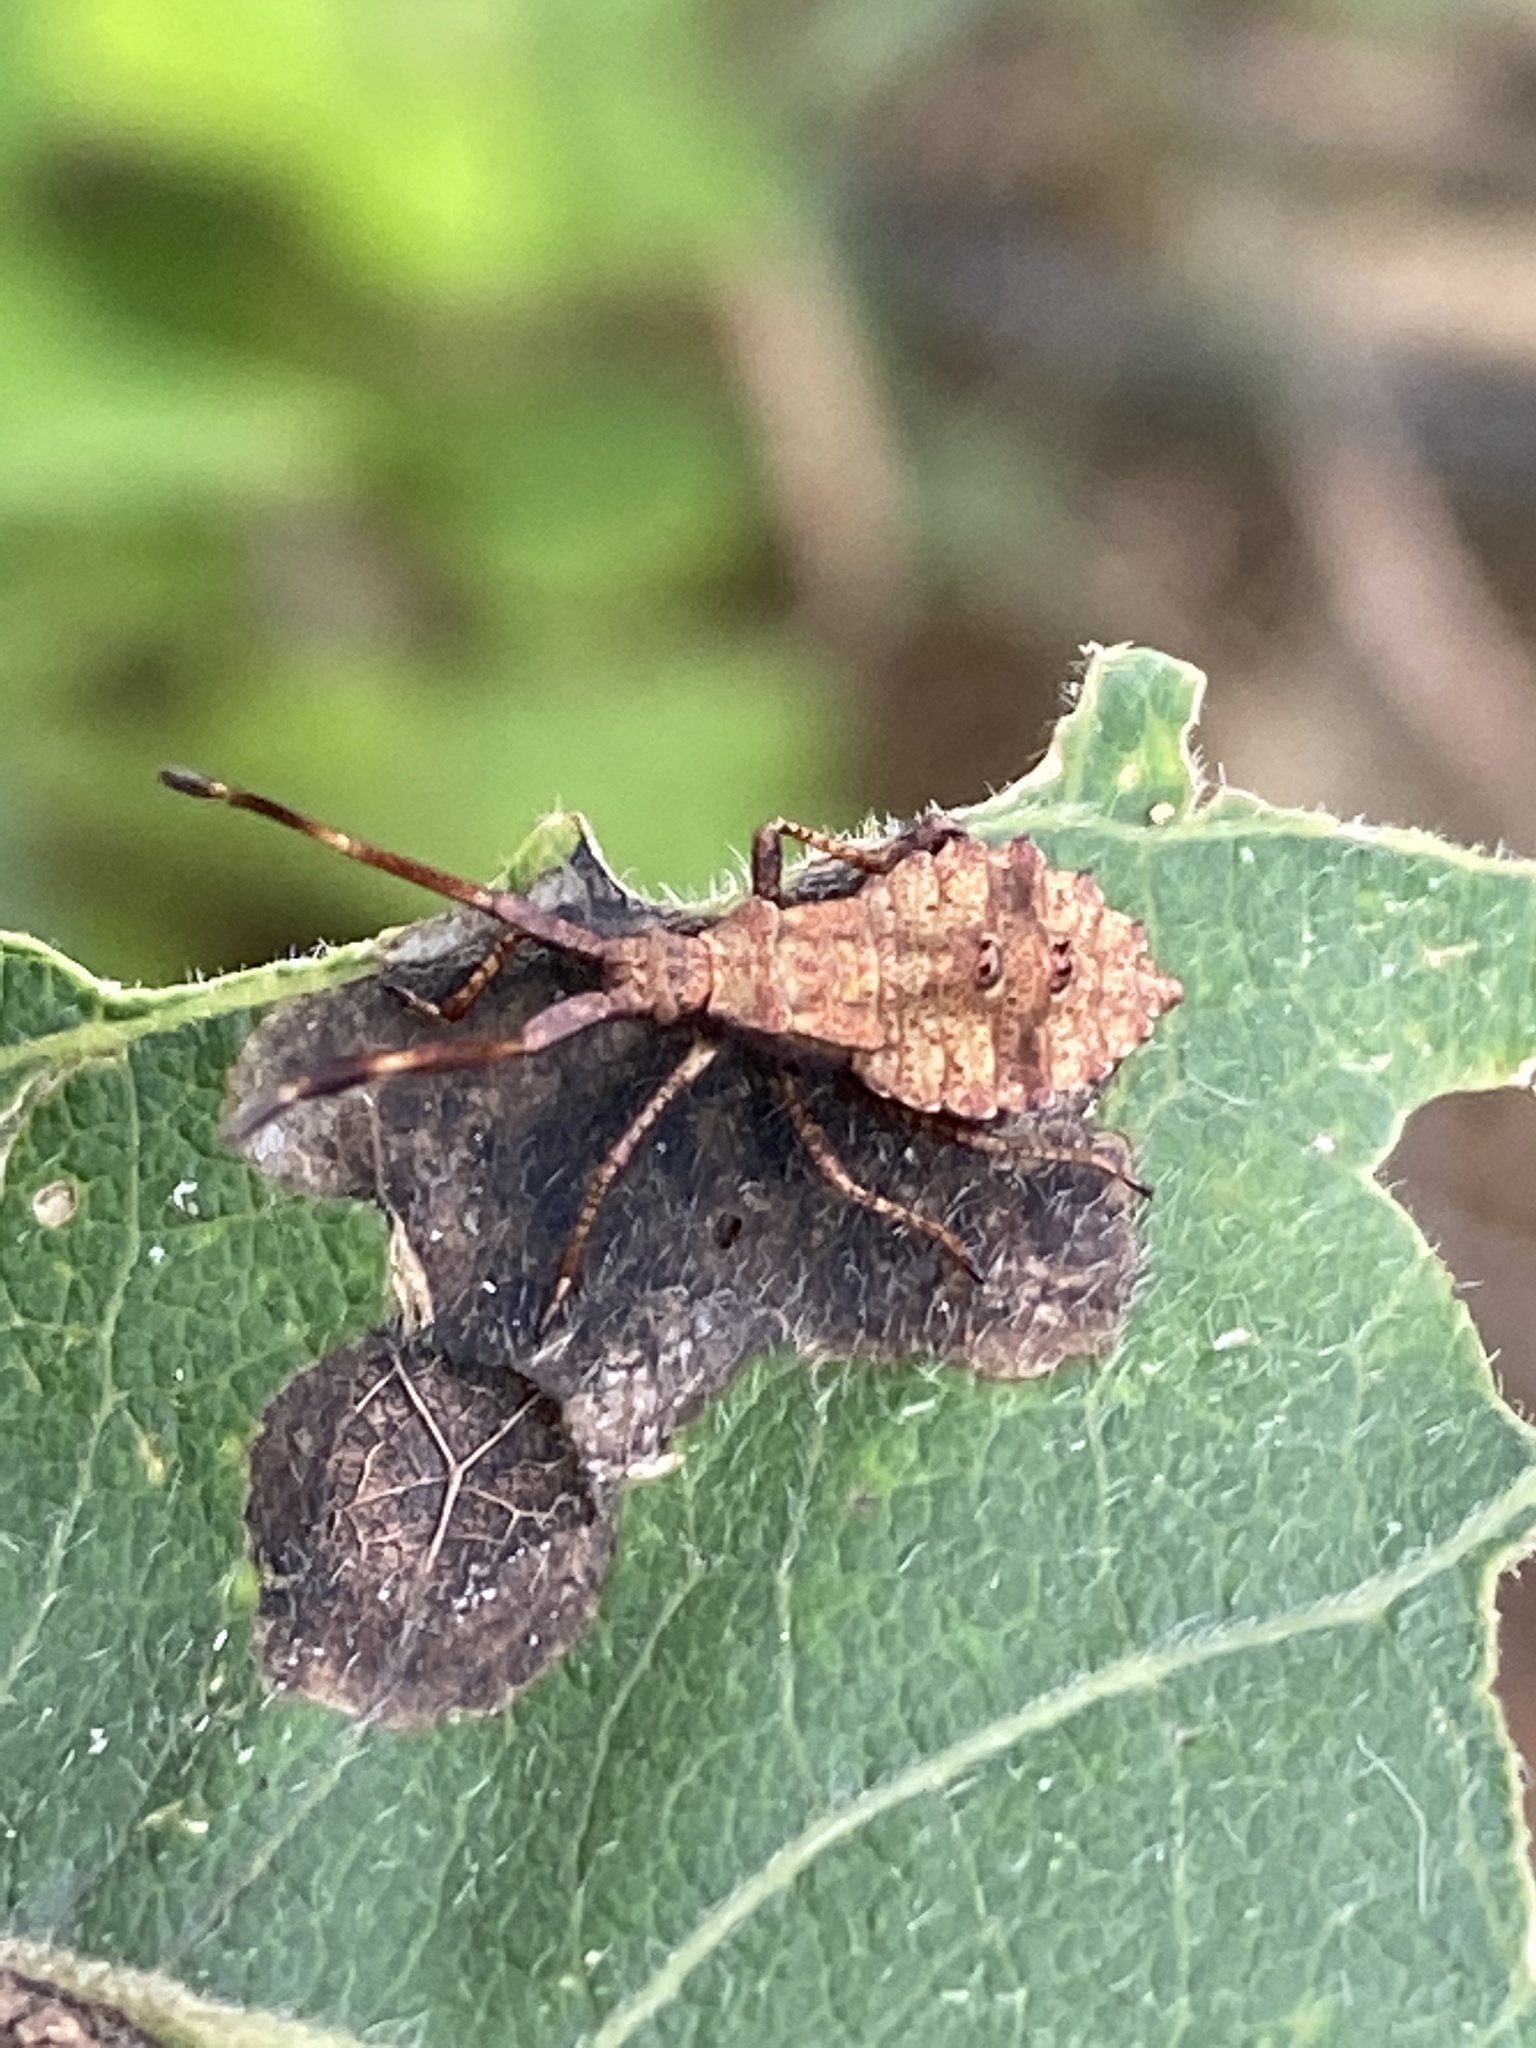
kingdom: Animalia
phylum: Arthropoda
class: Insecta
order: Hemiptera
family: Coreidae
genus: Coreus
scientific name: Coreus marginatus
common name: Dock bug
